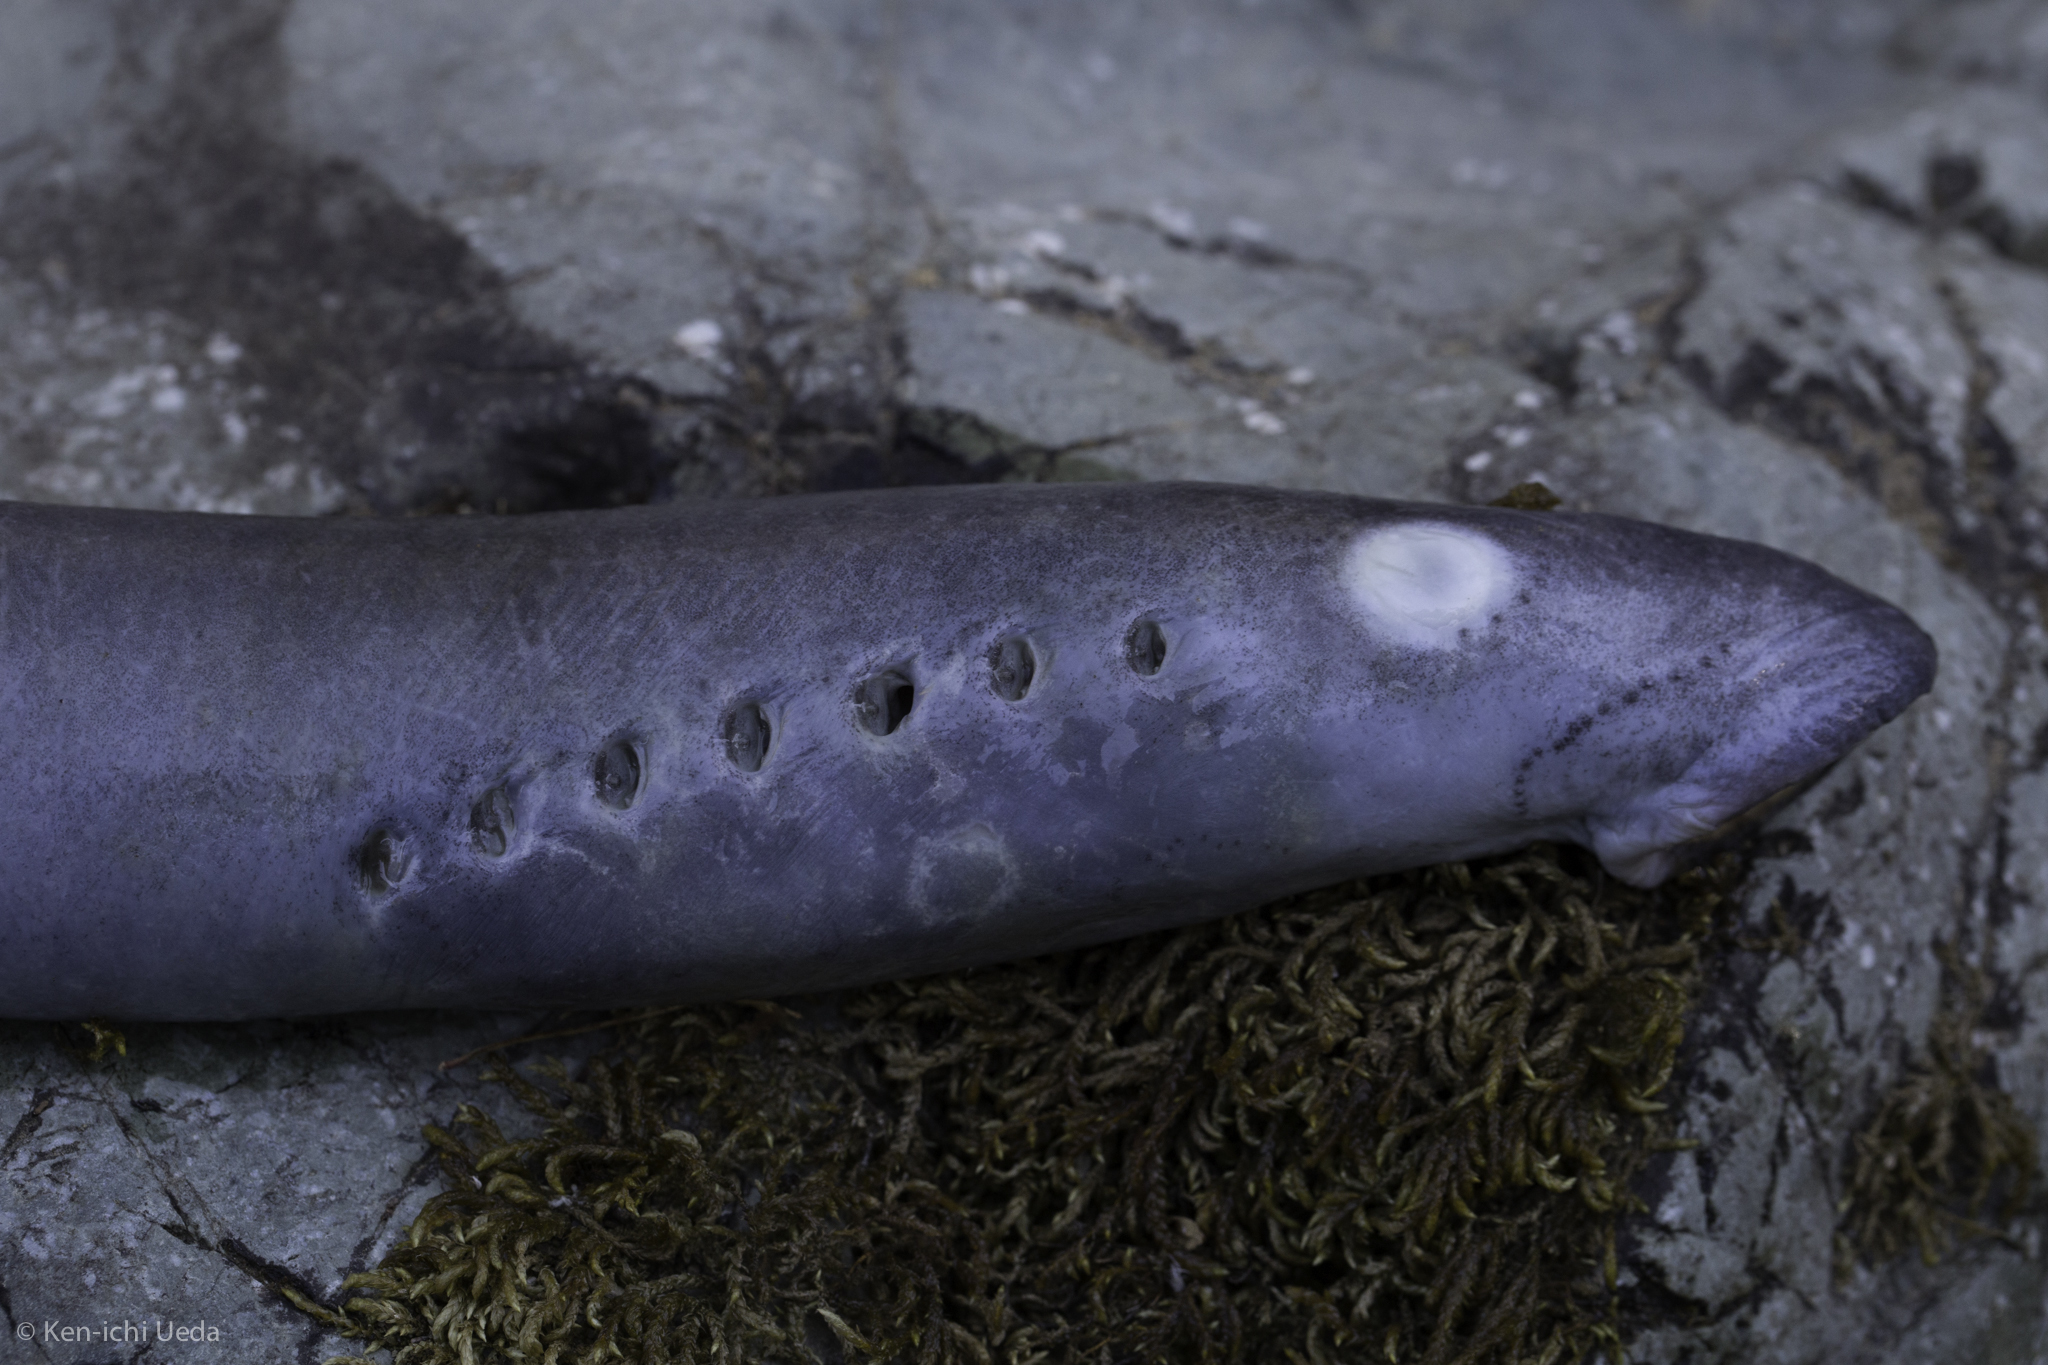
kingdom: Animalia
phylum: Chordata
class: Petromyzonti
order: Petromyzontiformes
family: Petromyzontidae
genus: Entosphenus
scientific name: Entosphenus tridentatus
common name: Pacific lamprey
